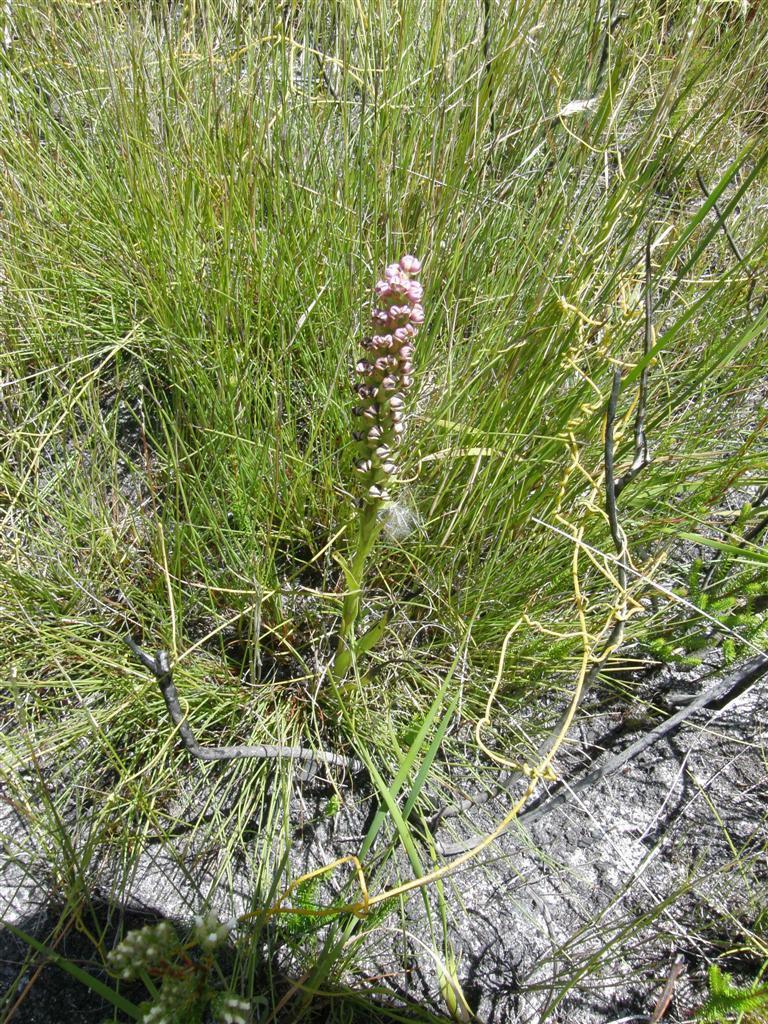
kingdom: Plantae
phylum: Tracheophyta
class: Liliopsida
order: Asparagales
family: Orchidaceae
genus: Evotella
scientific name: Evotella carnosa
